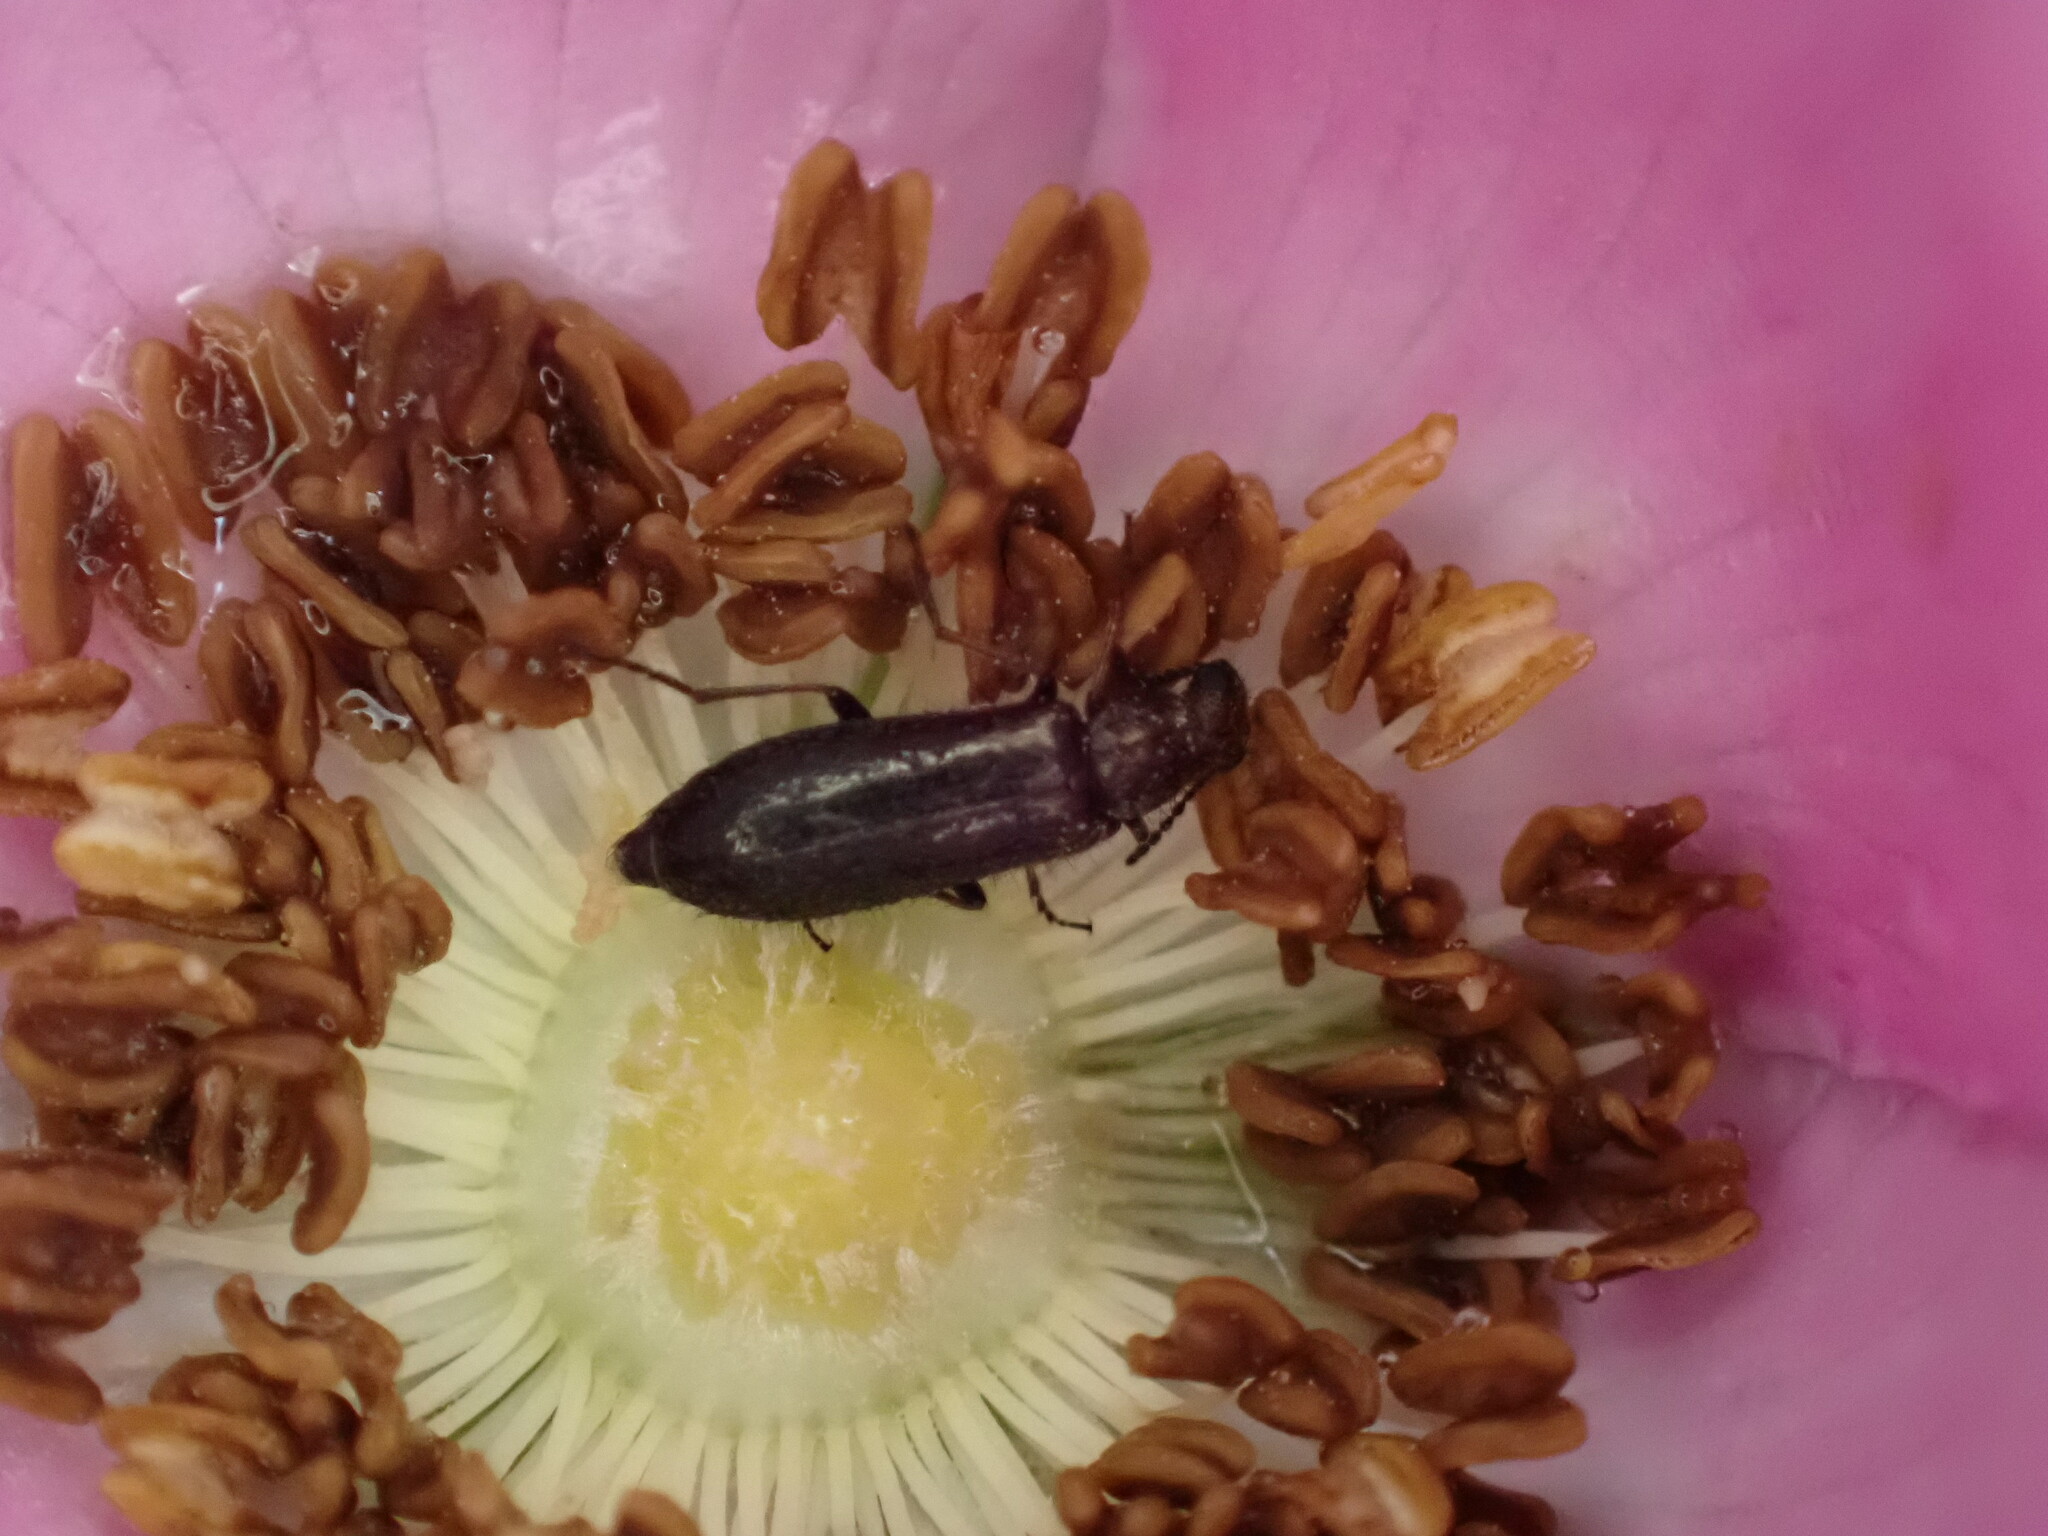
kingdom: Animalia
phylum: Arthropoda
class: Insecta
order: Coleoptera
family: Melyridae
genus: Dasytes
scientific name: Dasytes plumbeus
